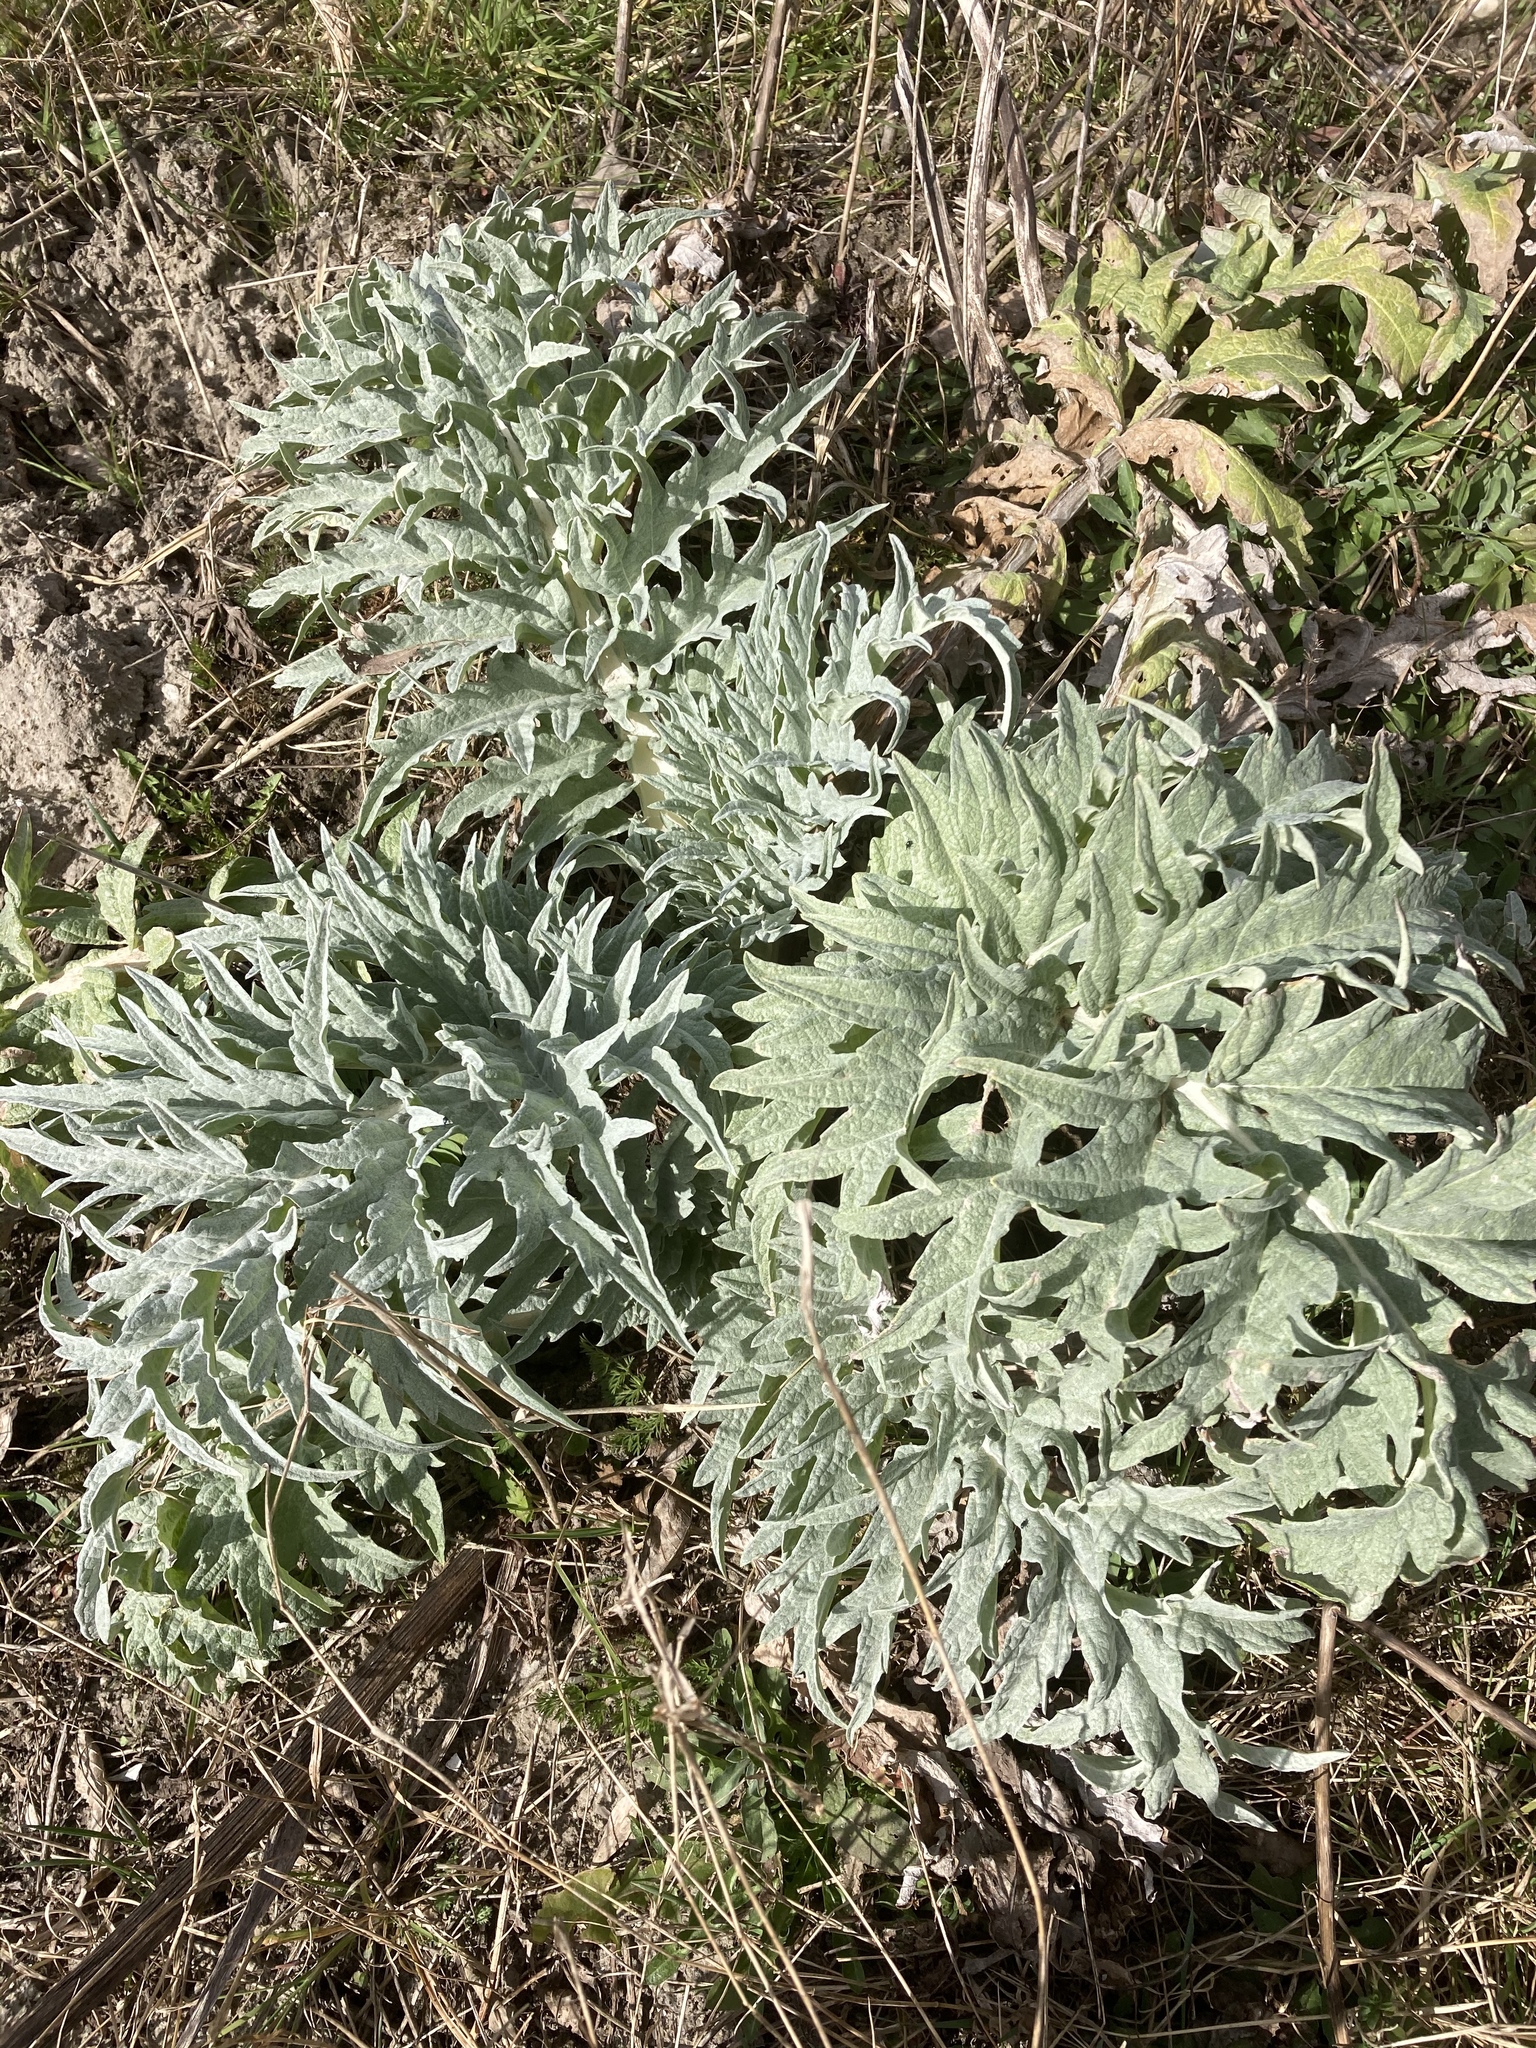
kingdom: Plantae
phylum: Tracheophyta
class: Magnoliopsida
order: Asterales
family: Asteraceae
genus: Cynara
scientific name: Cynara cardunculus
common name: Globe artichoke
